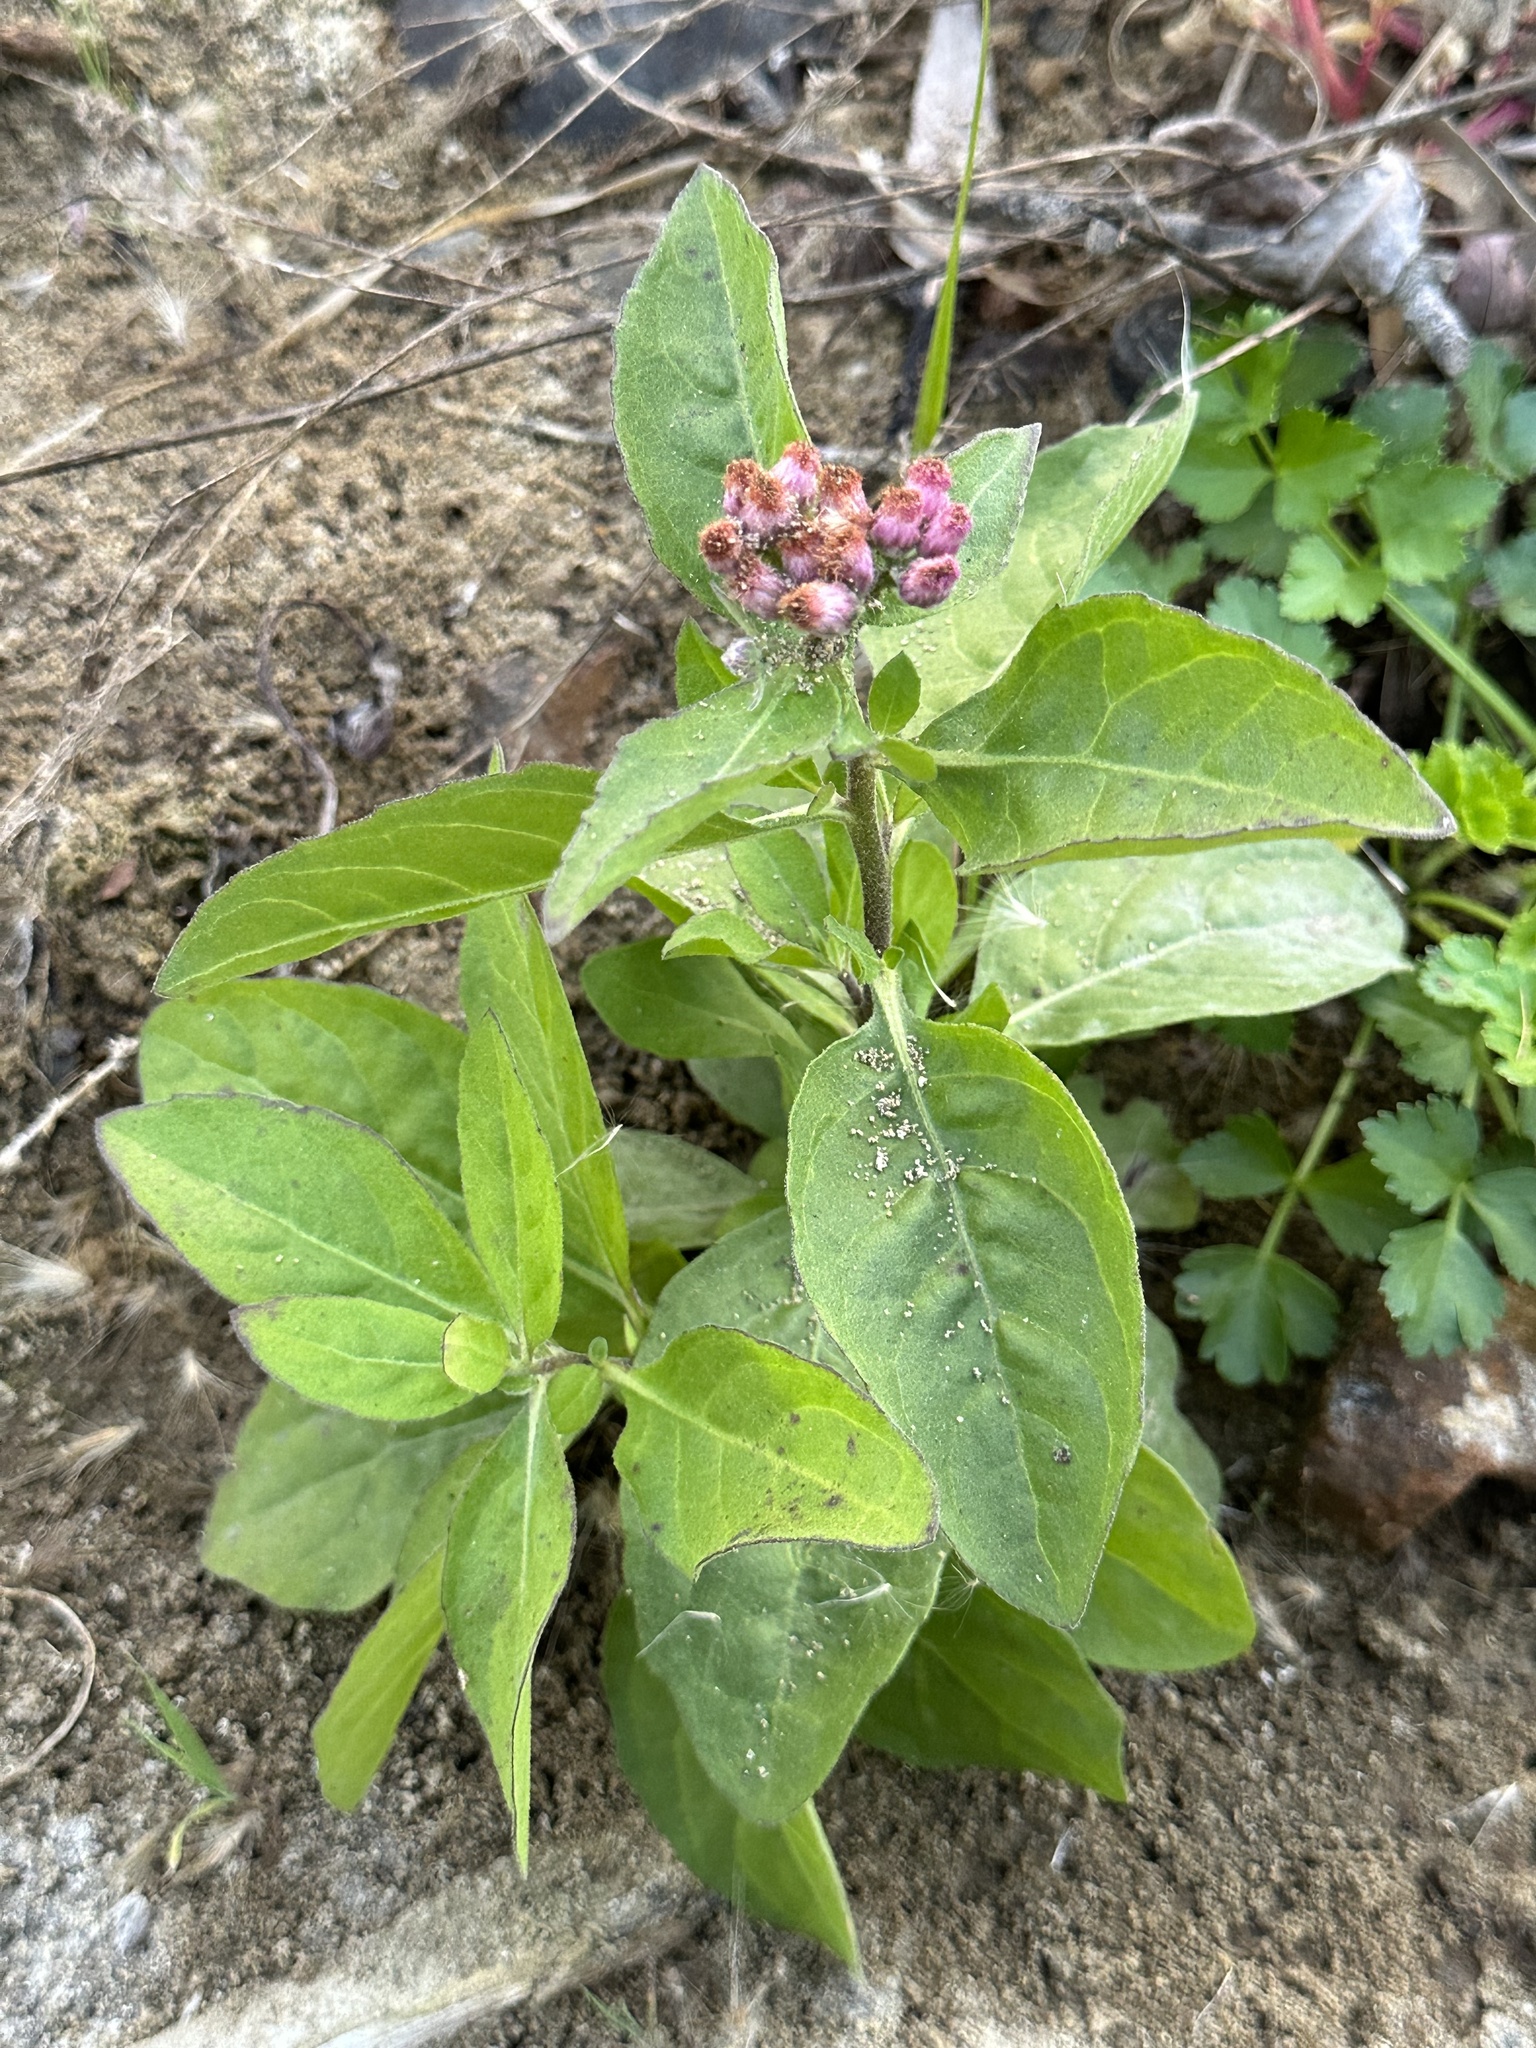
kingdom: Plantae
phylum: Tracheophyta
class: Magnoliopsida
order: Asterales
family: Asteraceae
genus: Pluchea
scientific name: Pluchea odorata
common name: Saltmarsh fleabane
